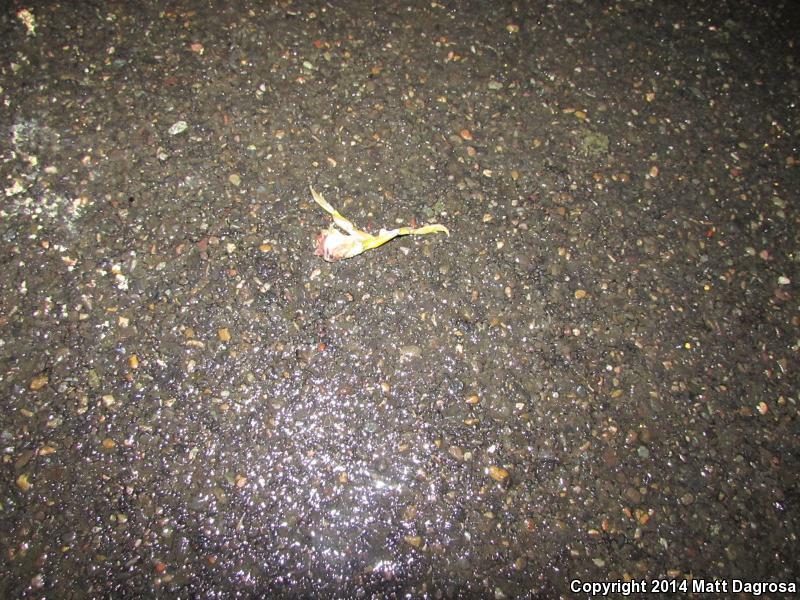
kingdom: Animalia
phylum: Chordata
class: Amphibia
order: Anura
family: Hylidae
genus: Pseudacris
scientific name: Pseudacris regilla
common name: Pacific chorus frog
